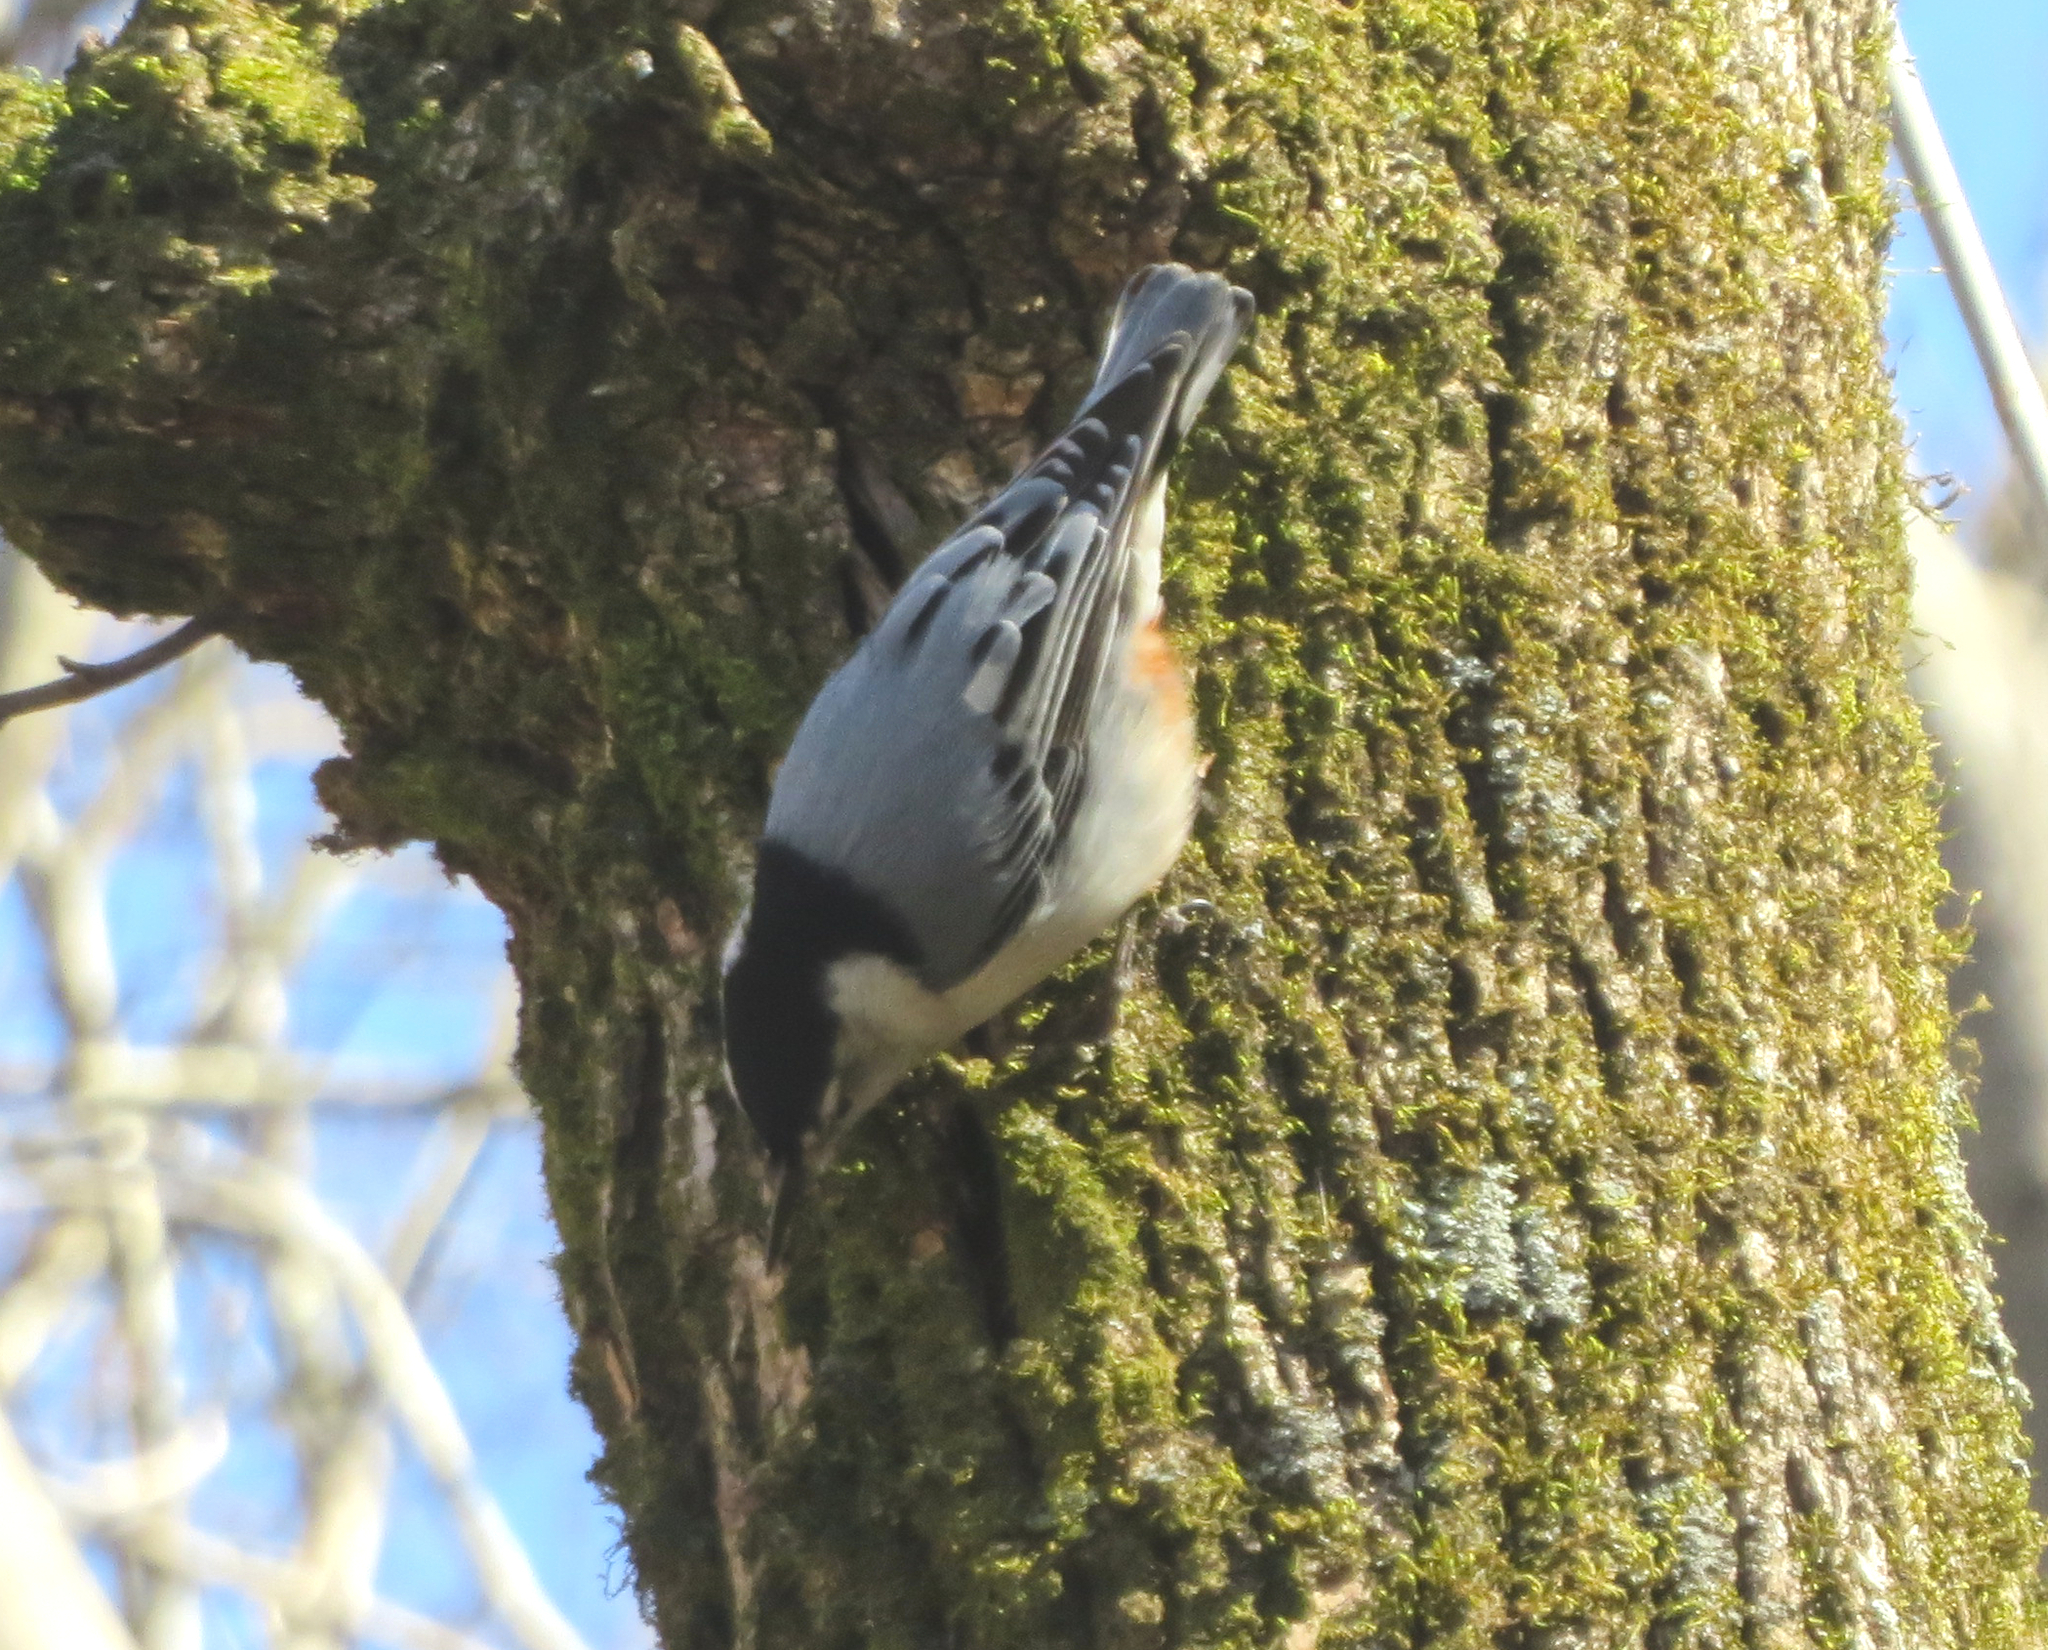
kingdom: Animalia
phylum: Chordata
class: Aves
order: Passeriformes
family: Sittidae
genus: Sitta
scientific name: Sitta carolinensis
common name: White-breasted nuthatch
